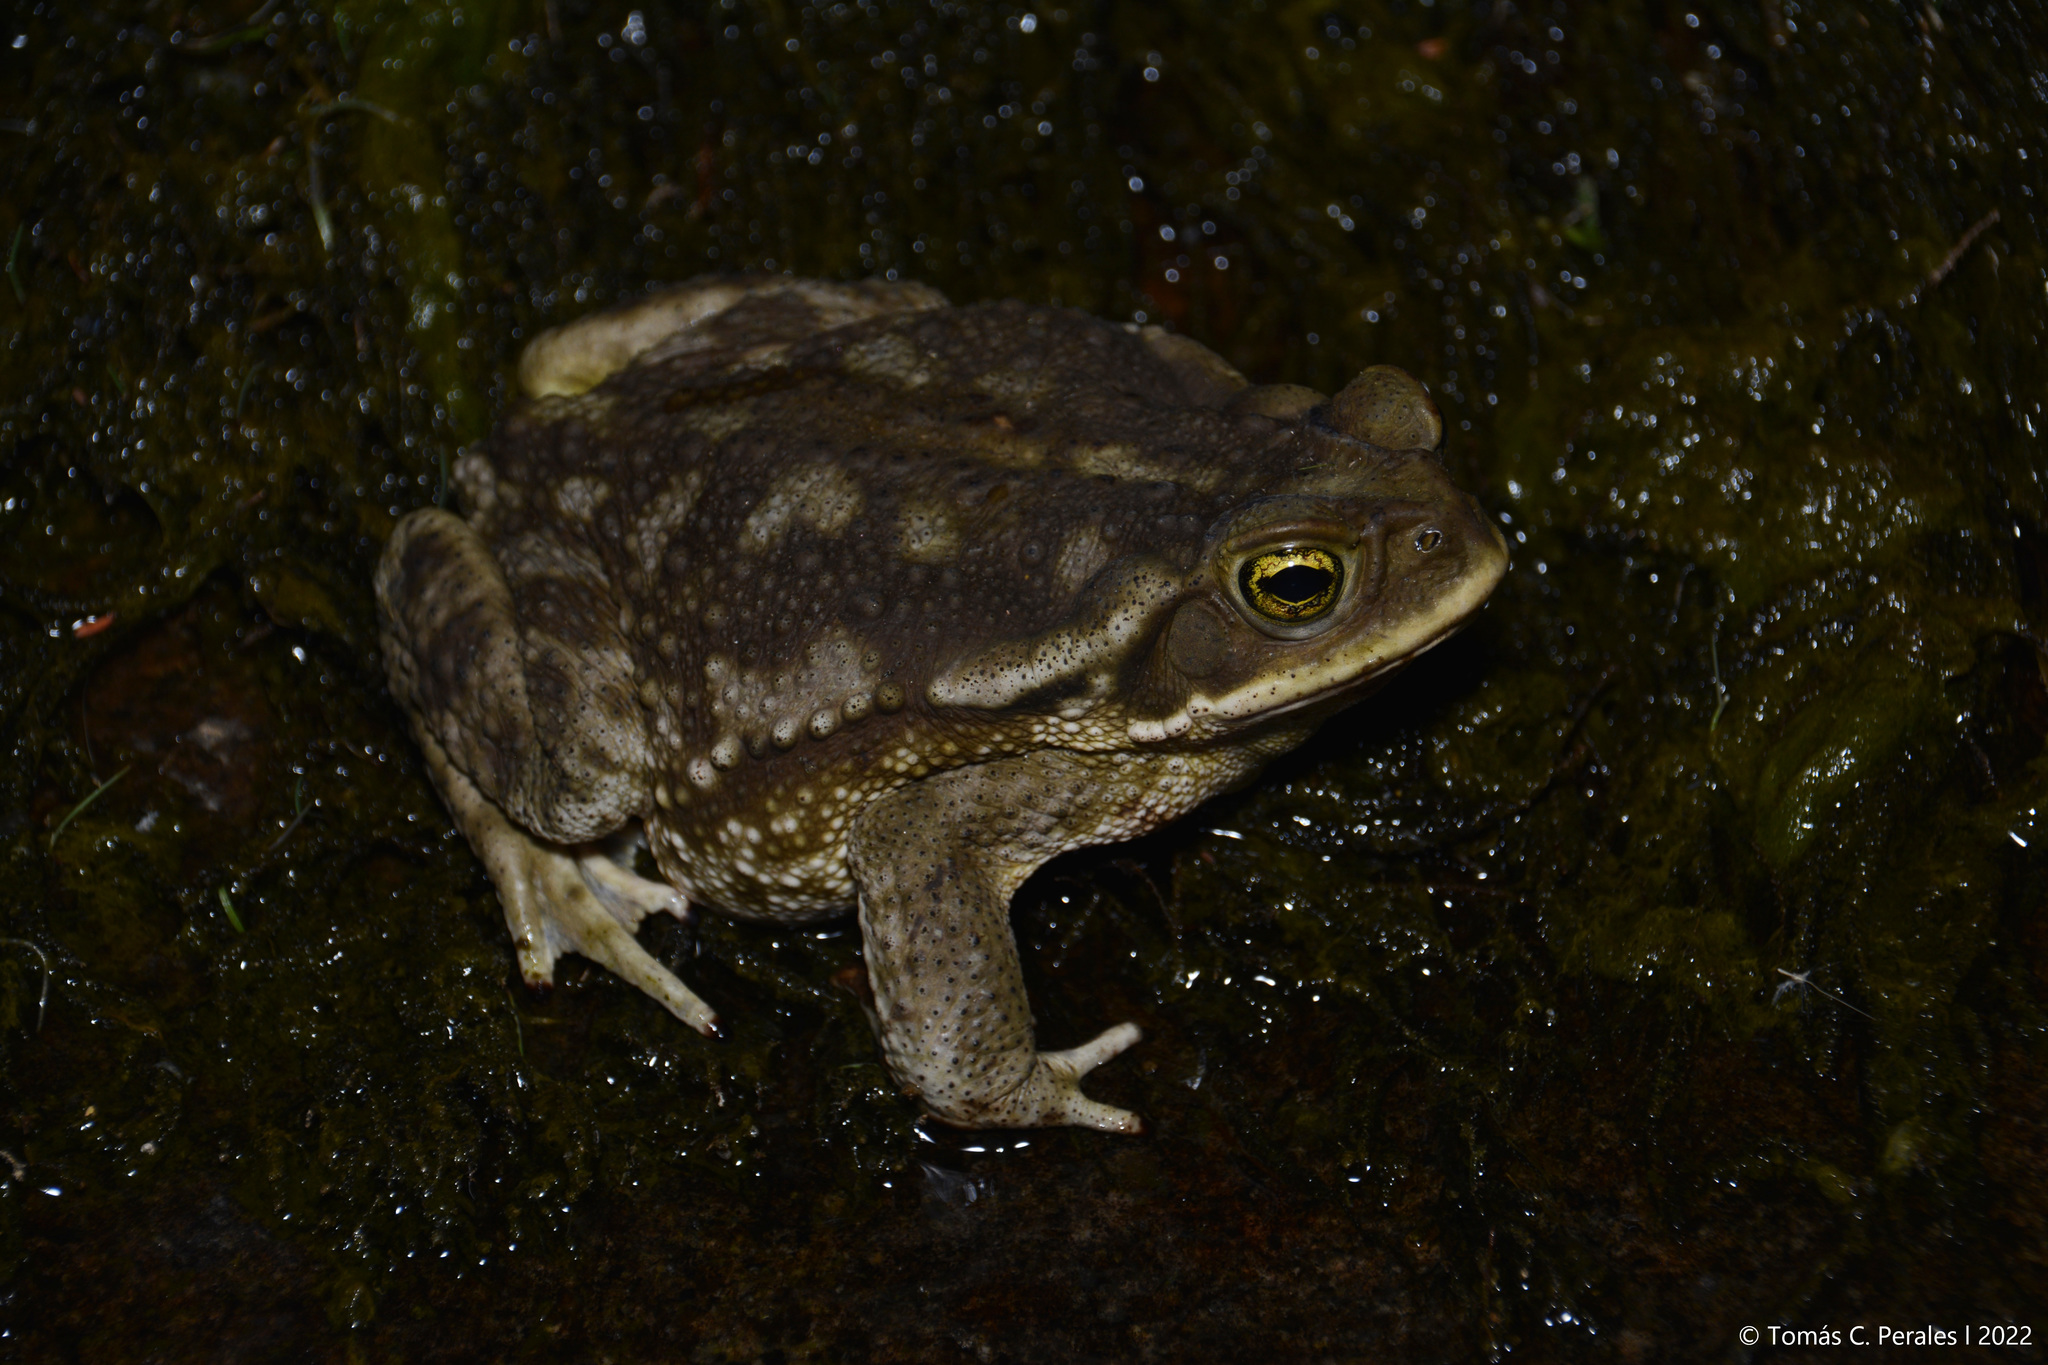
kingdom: Animalia
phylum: Chordata
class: Amphibia
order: Anura
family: Bufonidae
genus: Rhinella
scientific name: Rhinella arenarum
